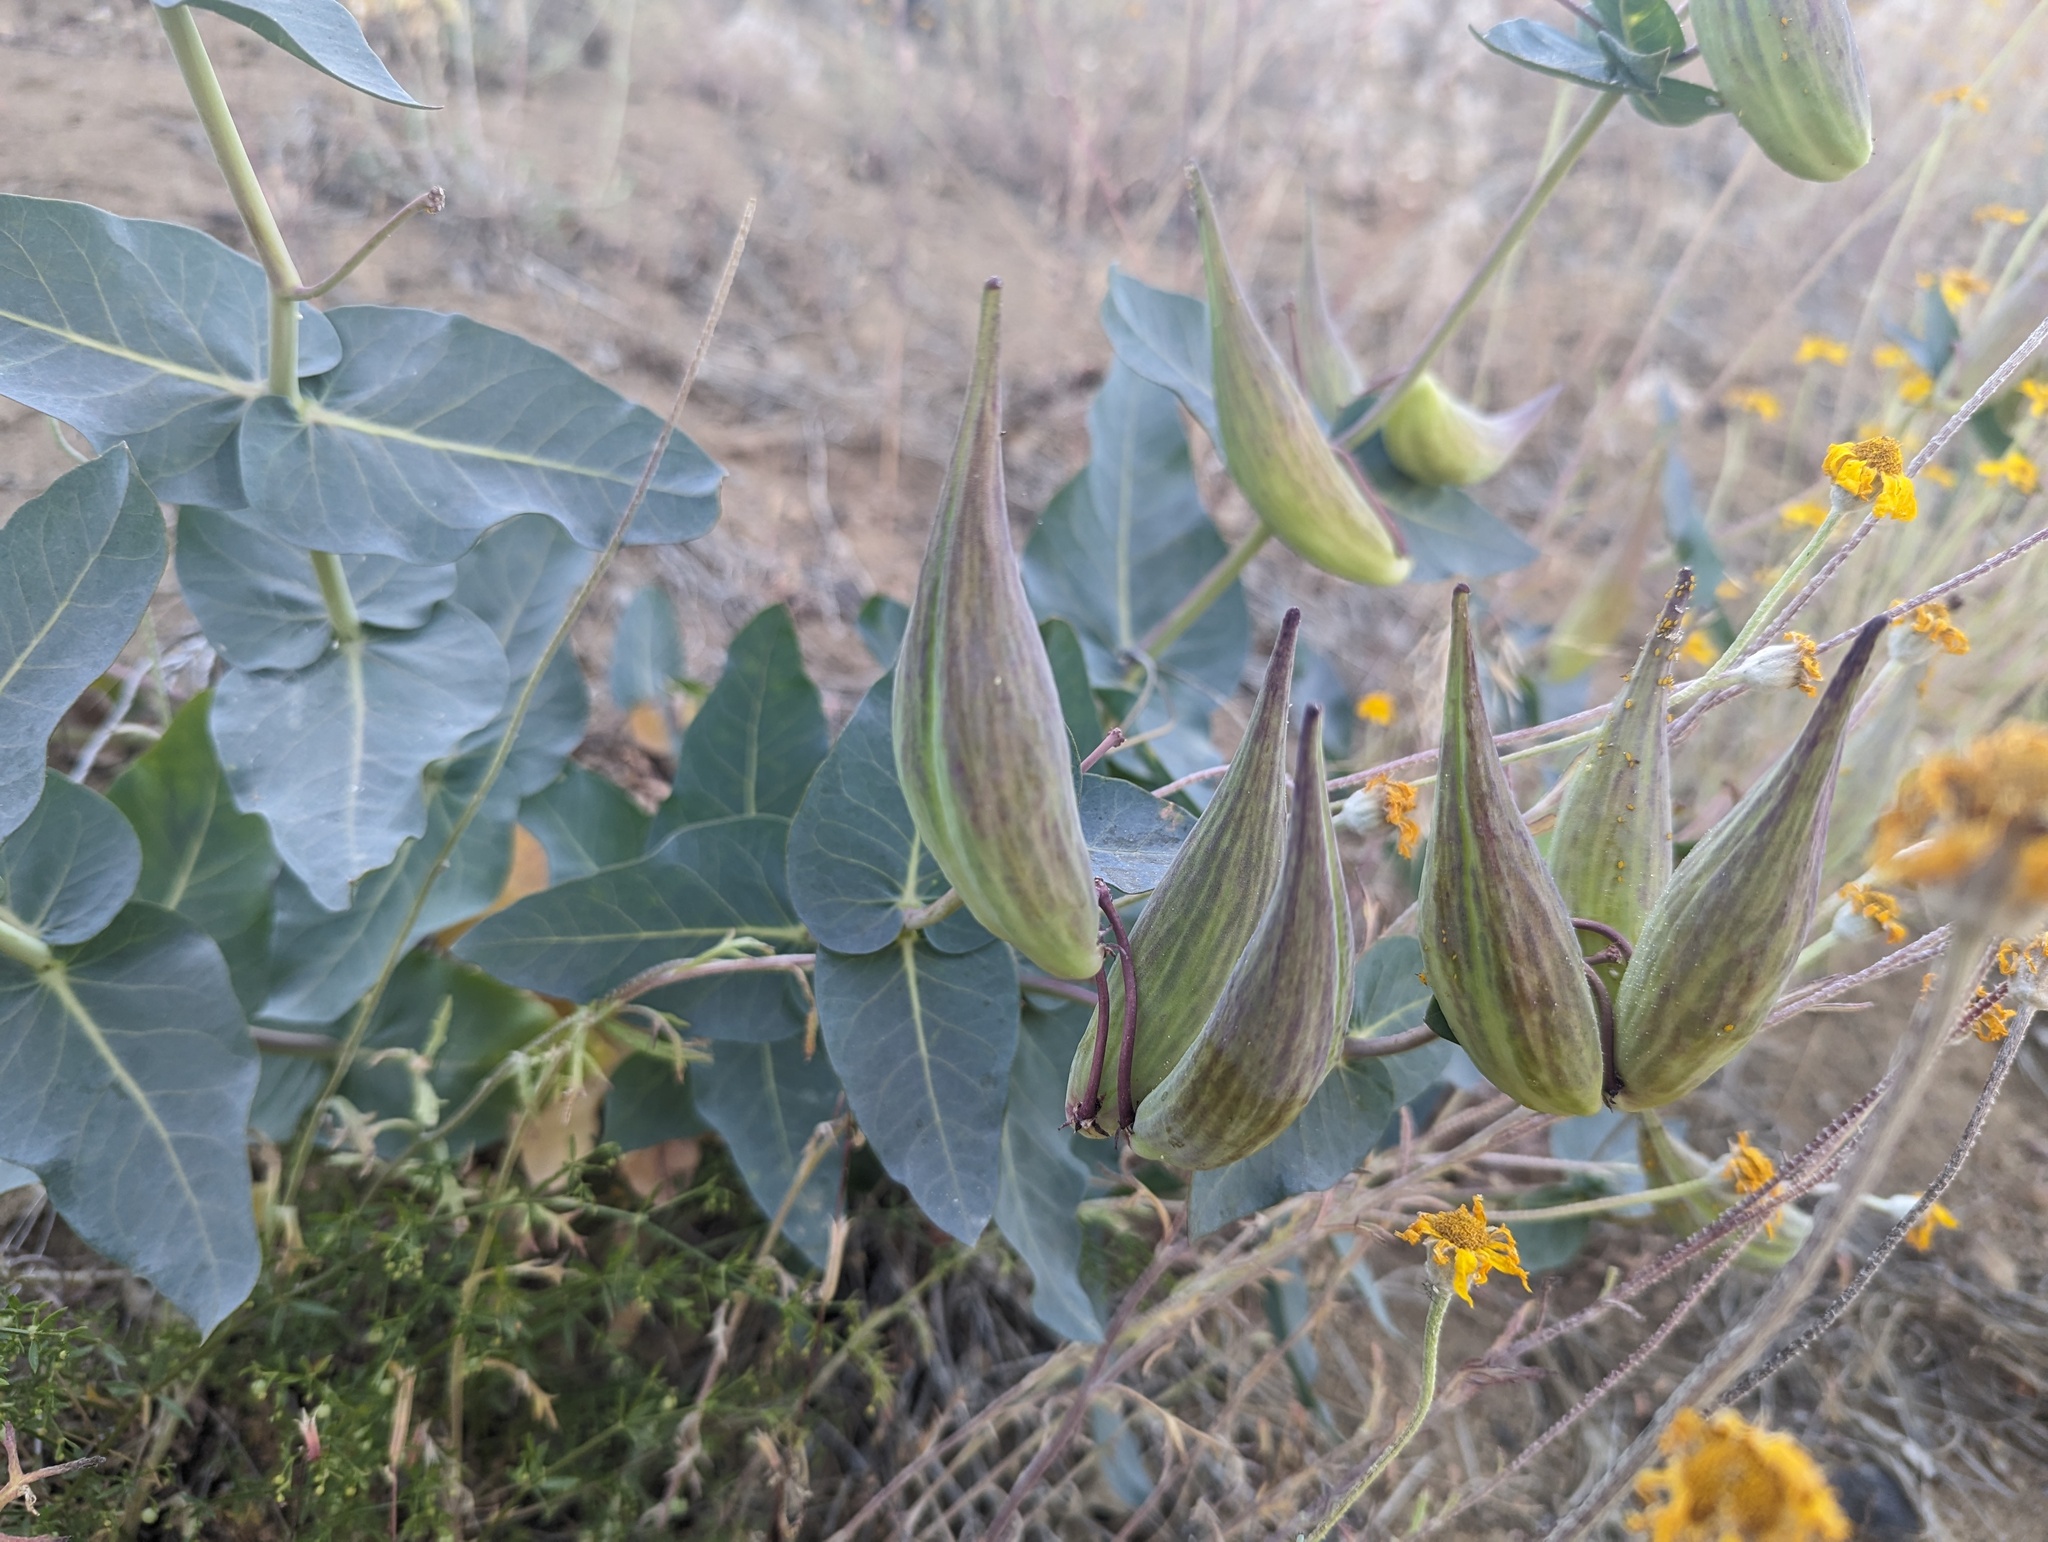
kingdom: Plantae
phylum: Tracheophyta
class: Magnoliopsida
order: Gentianales
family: Apocynaceae
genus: Asclepias
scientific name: Asclepias cordifolia
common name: Purple milkweed
